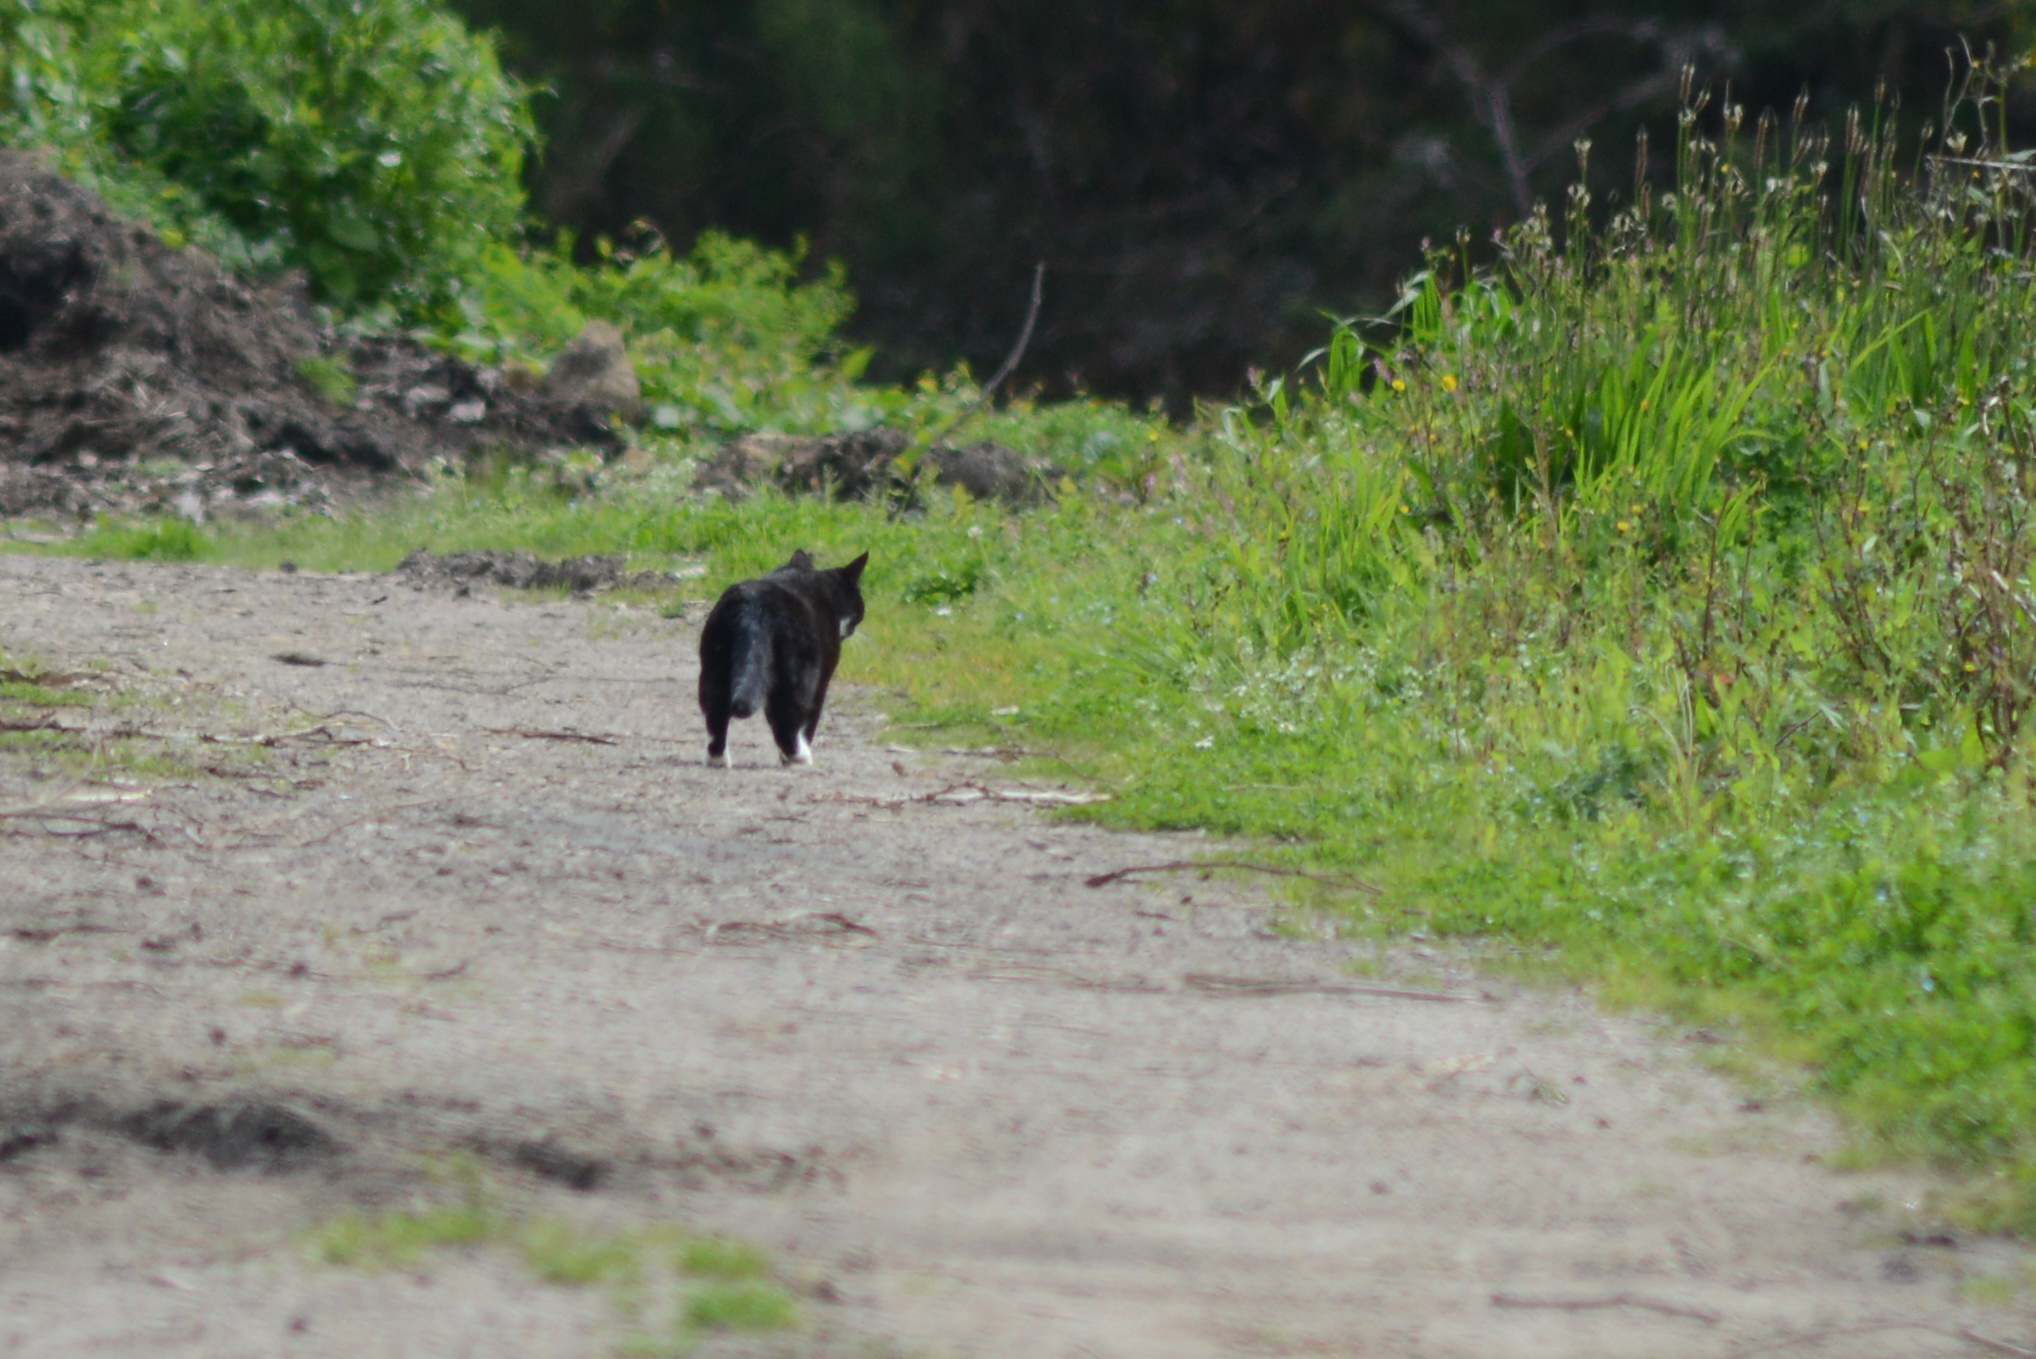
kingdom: Animalia
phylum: Chordata
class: Mammalia
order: Carnivora
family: Felidae
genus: Felis
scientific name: Felis catus
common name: Domestic cat
